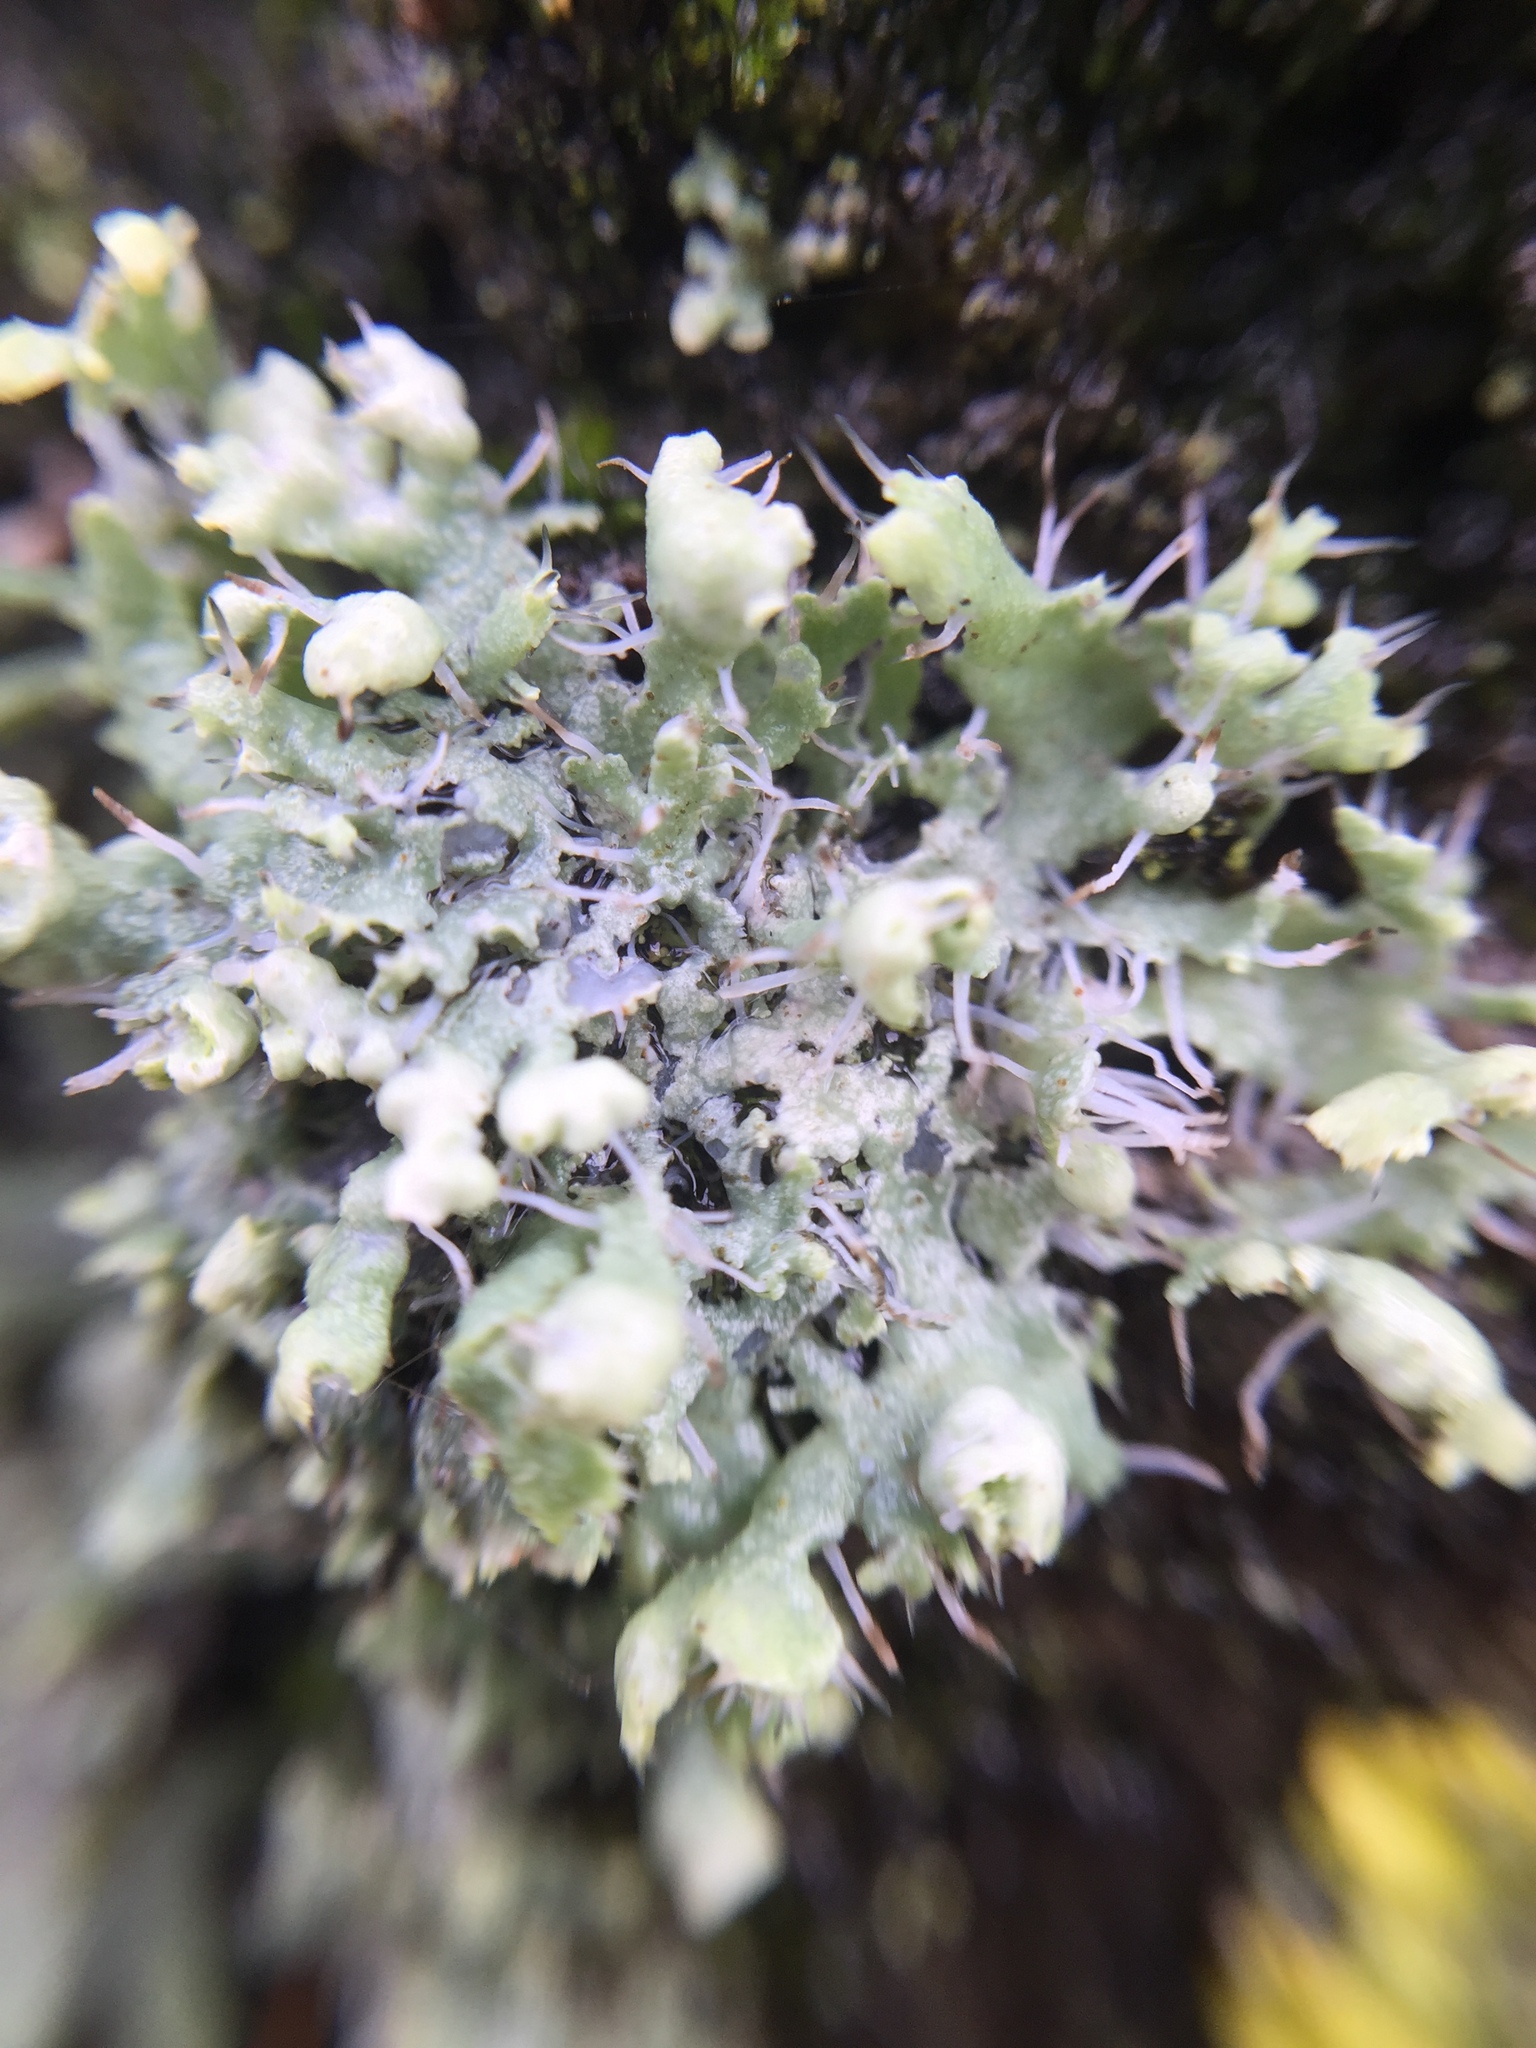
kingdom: Fungi
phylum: Ascomycota
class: Lecanoromycetes
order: Caliciales
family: Physciaceae
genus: Physcia
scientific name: Physcia adscendens
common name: Hooded rosette lichen
